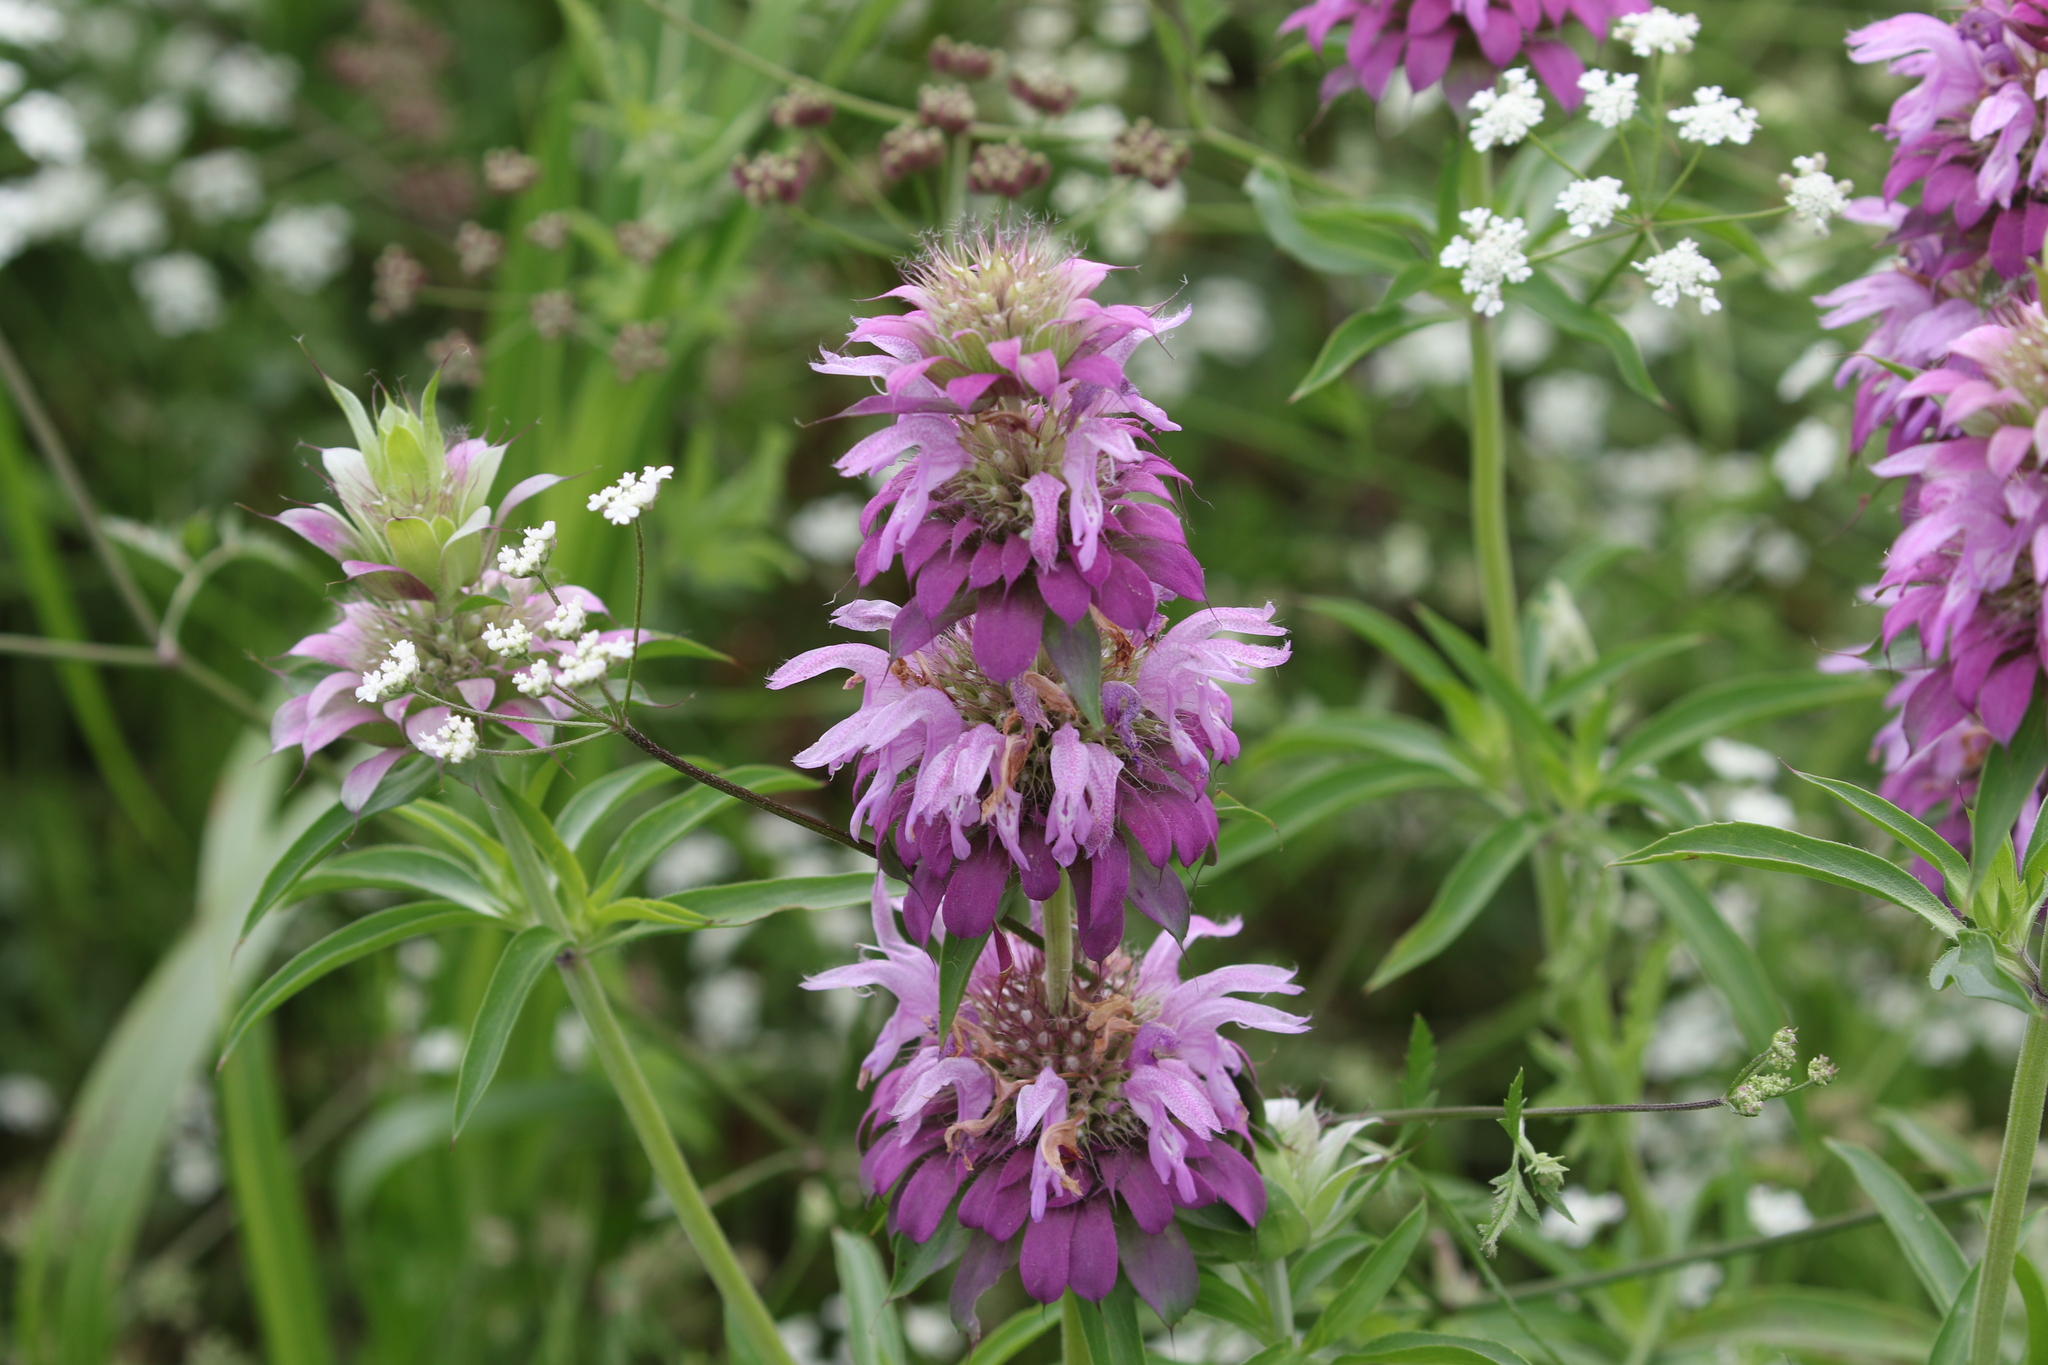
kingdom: Plantae
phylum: Tracheophyta
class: Magnoliopsida
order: Lamiales
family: Lamiaceae
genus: Monarda
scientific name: Monarda citriodora
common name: Lemon beebalm
